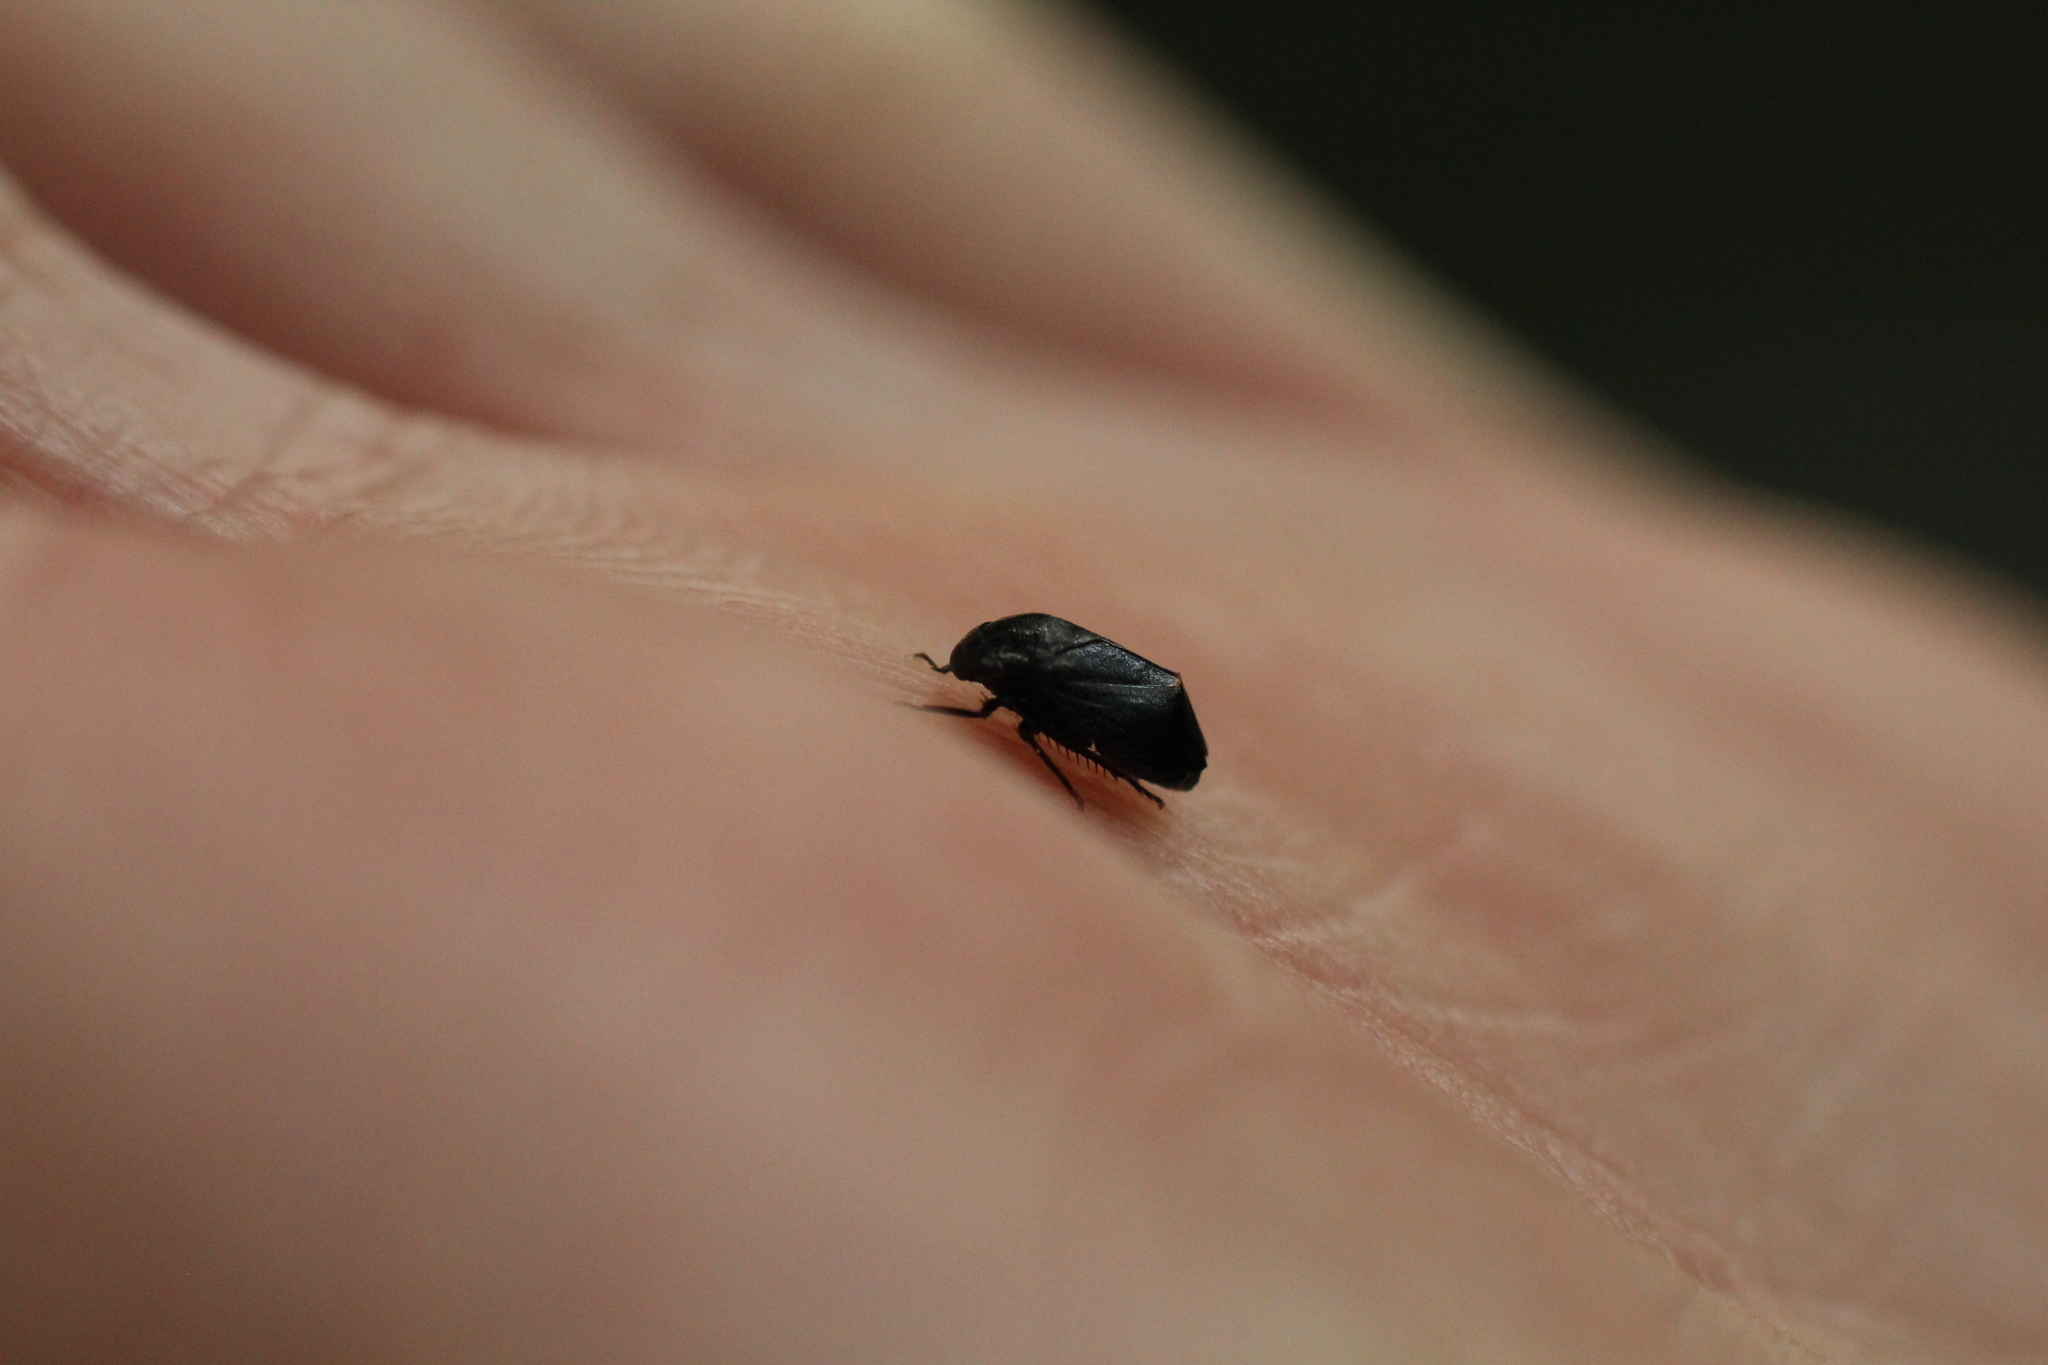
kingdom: Animalia
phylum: Arthropoda
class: Insecta
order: Hemiptera
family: Cicadellidae
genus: Penthimia
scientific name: Penthimia nigra
